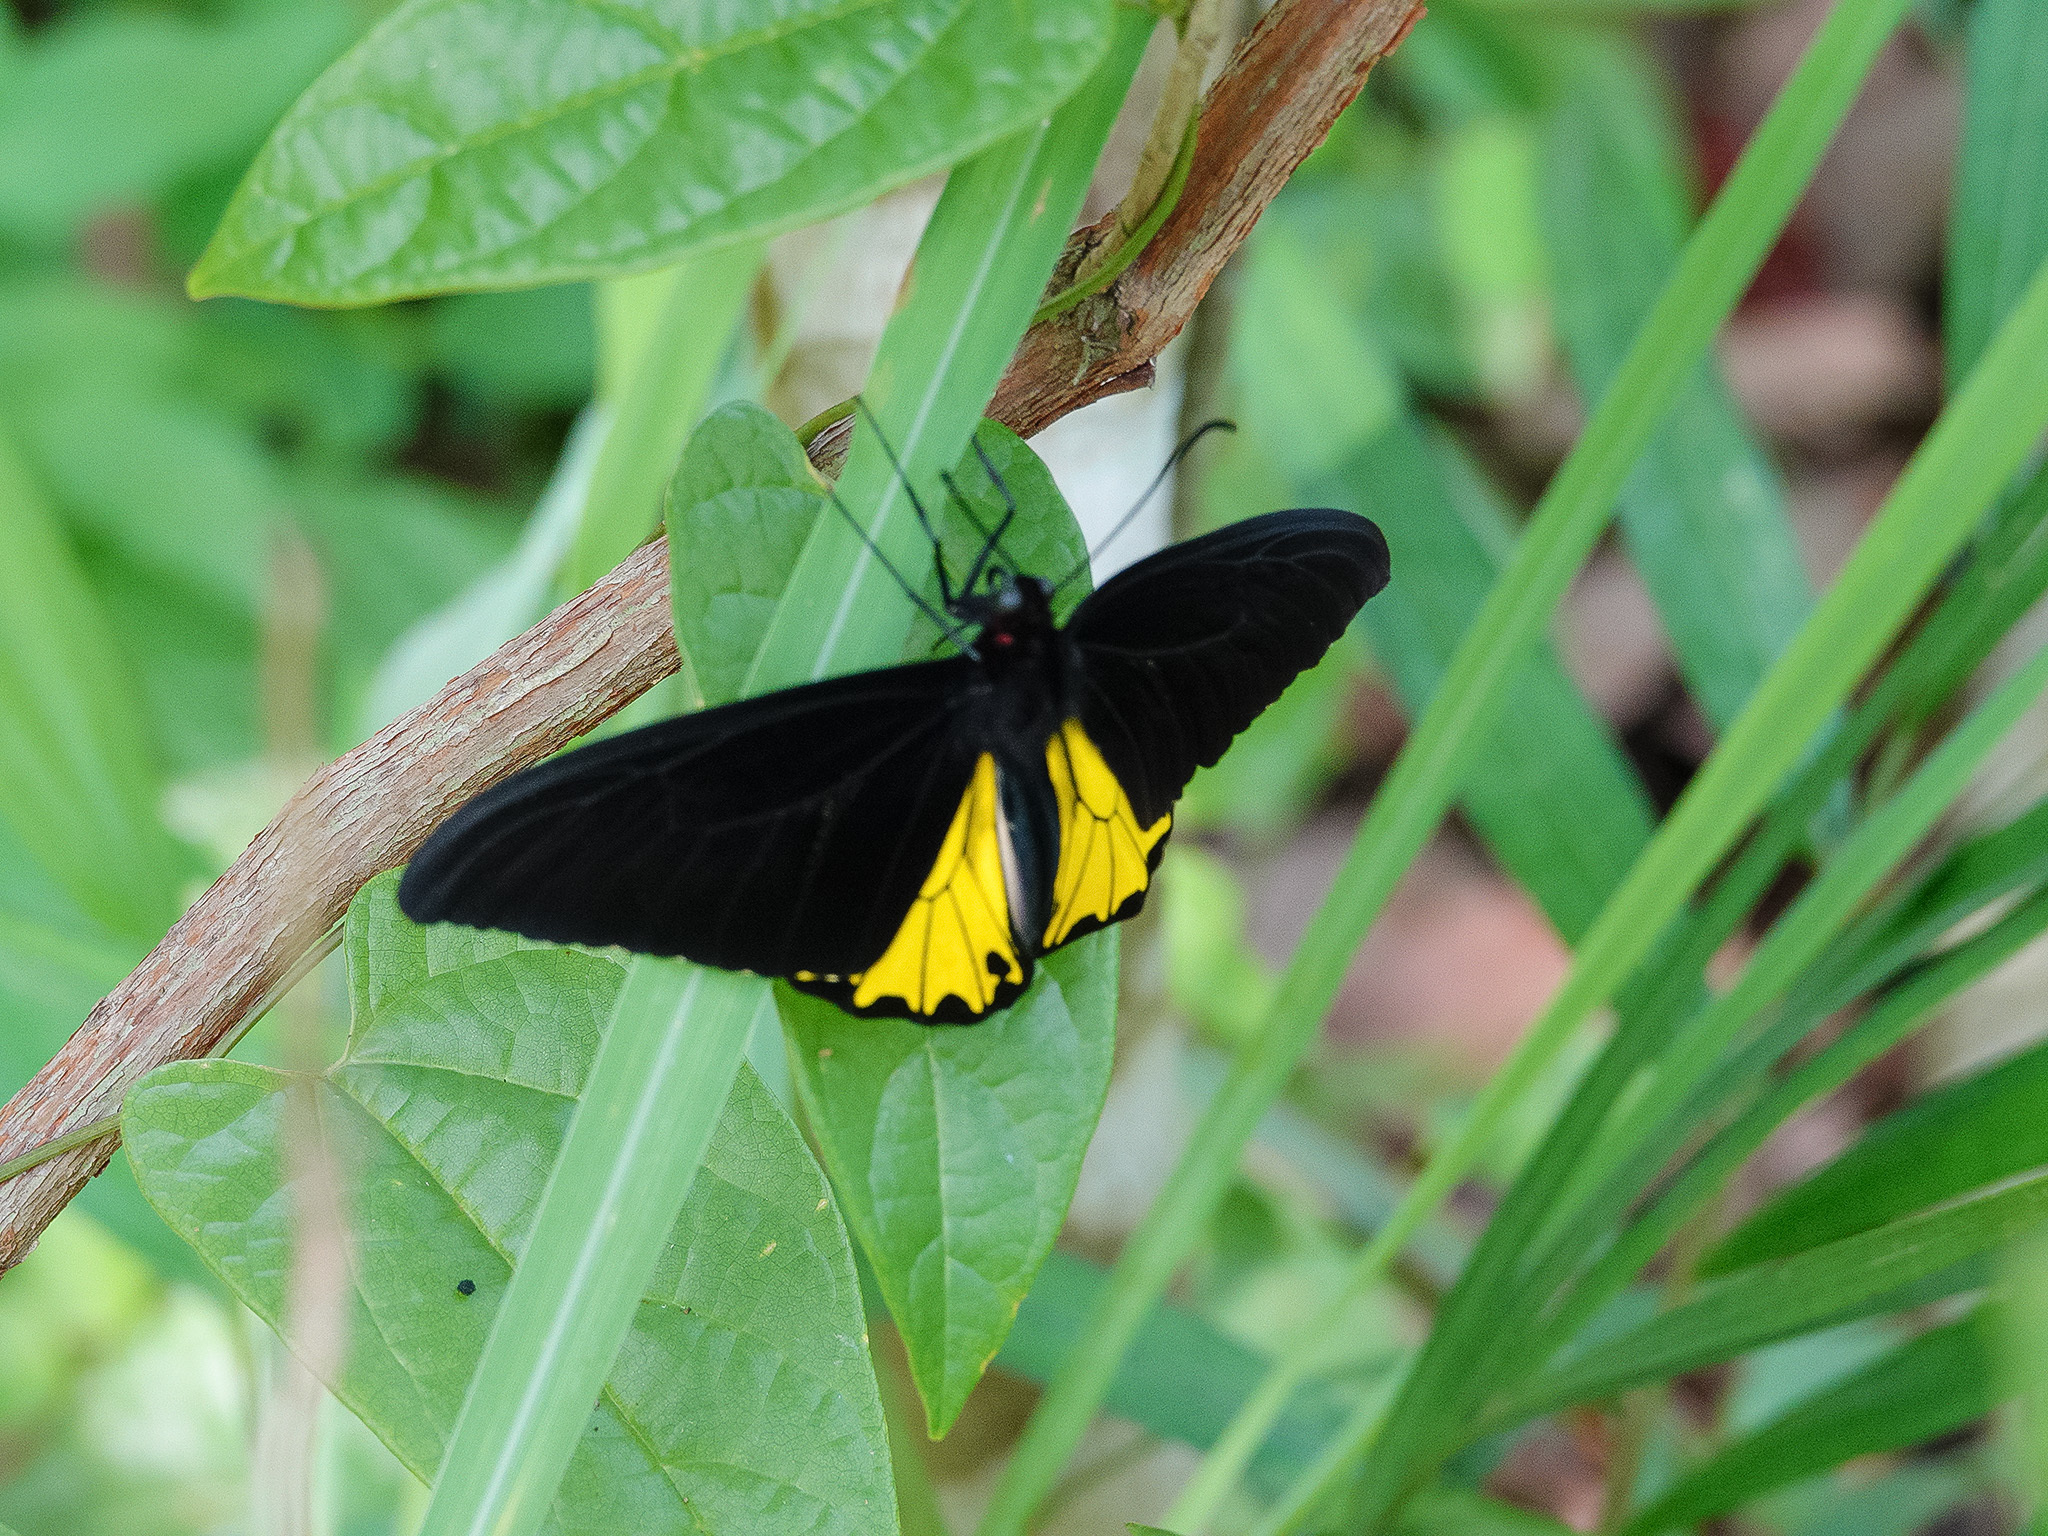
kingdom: Animalia
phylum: Arthropoda
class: Insecta
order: Lepidoptera
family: Papilionidae
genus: Troides
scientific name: Troides helena
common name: Common birdwing
